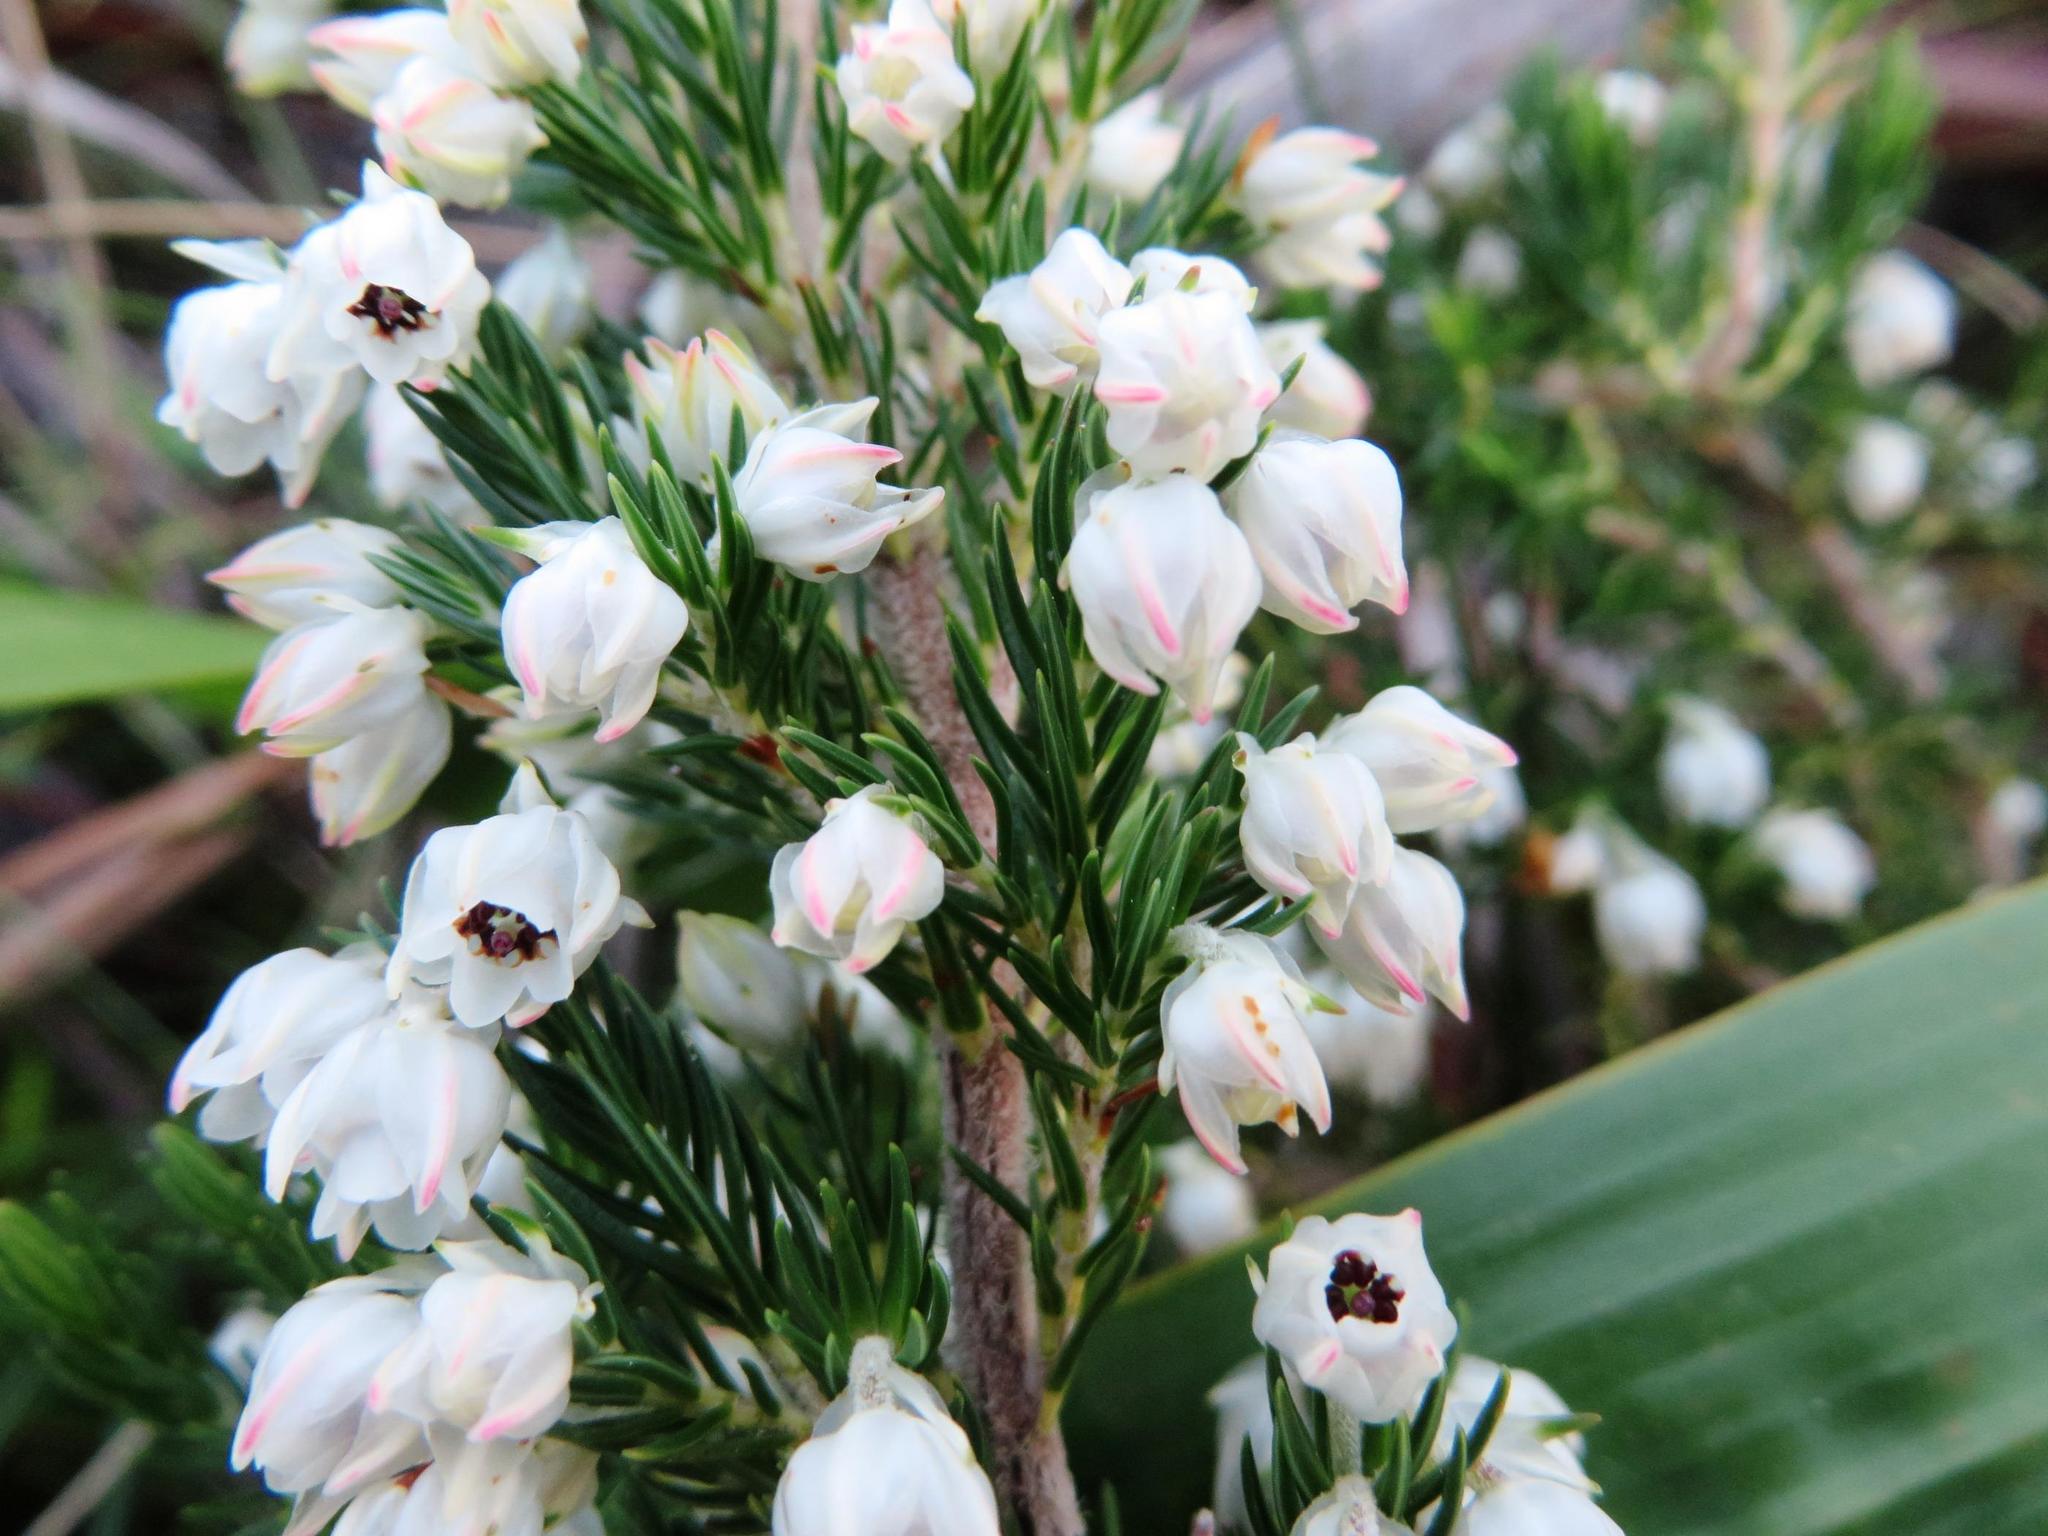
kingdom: Plantae
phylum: Tracheophyta
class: Magnoliopsida
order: Ericales
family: Ericaceae
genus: Erica
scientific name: Erica triflora
